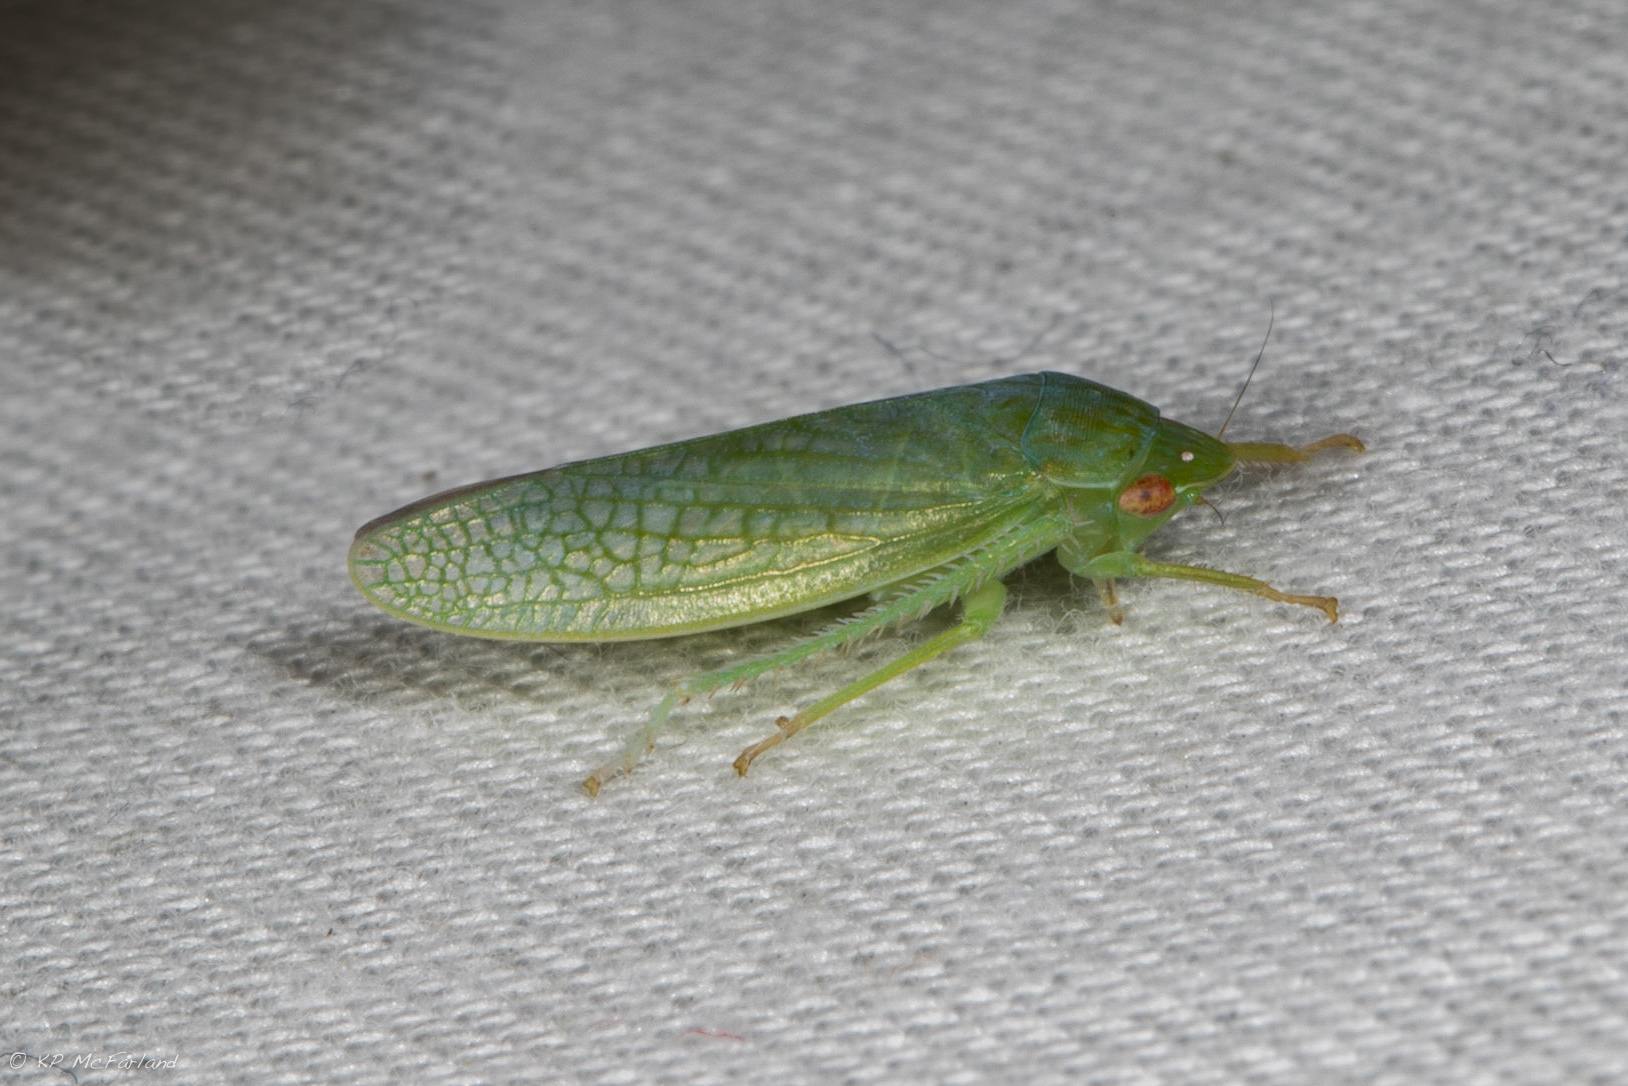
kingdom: Animalia
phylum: Arthropoda
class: Insecta
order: Hemiptera
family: Cicadellidae
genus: Gyponana
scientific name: Gyponana
